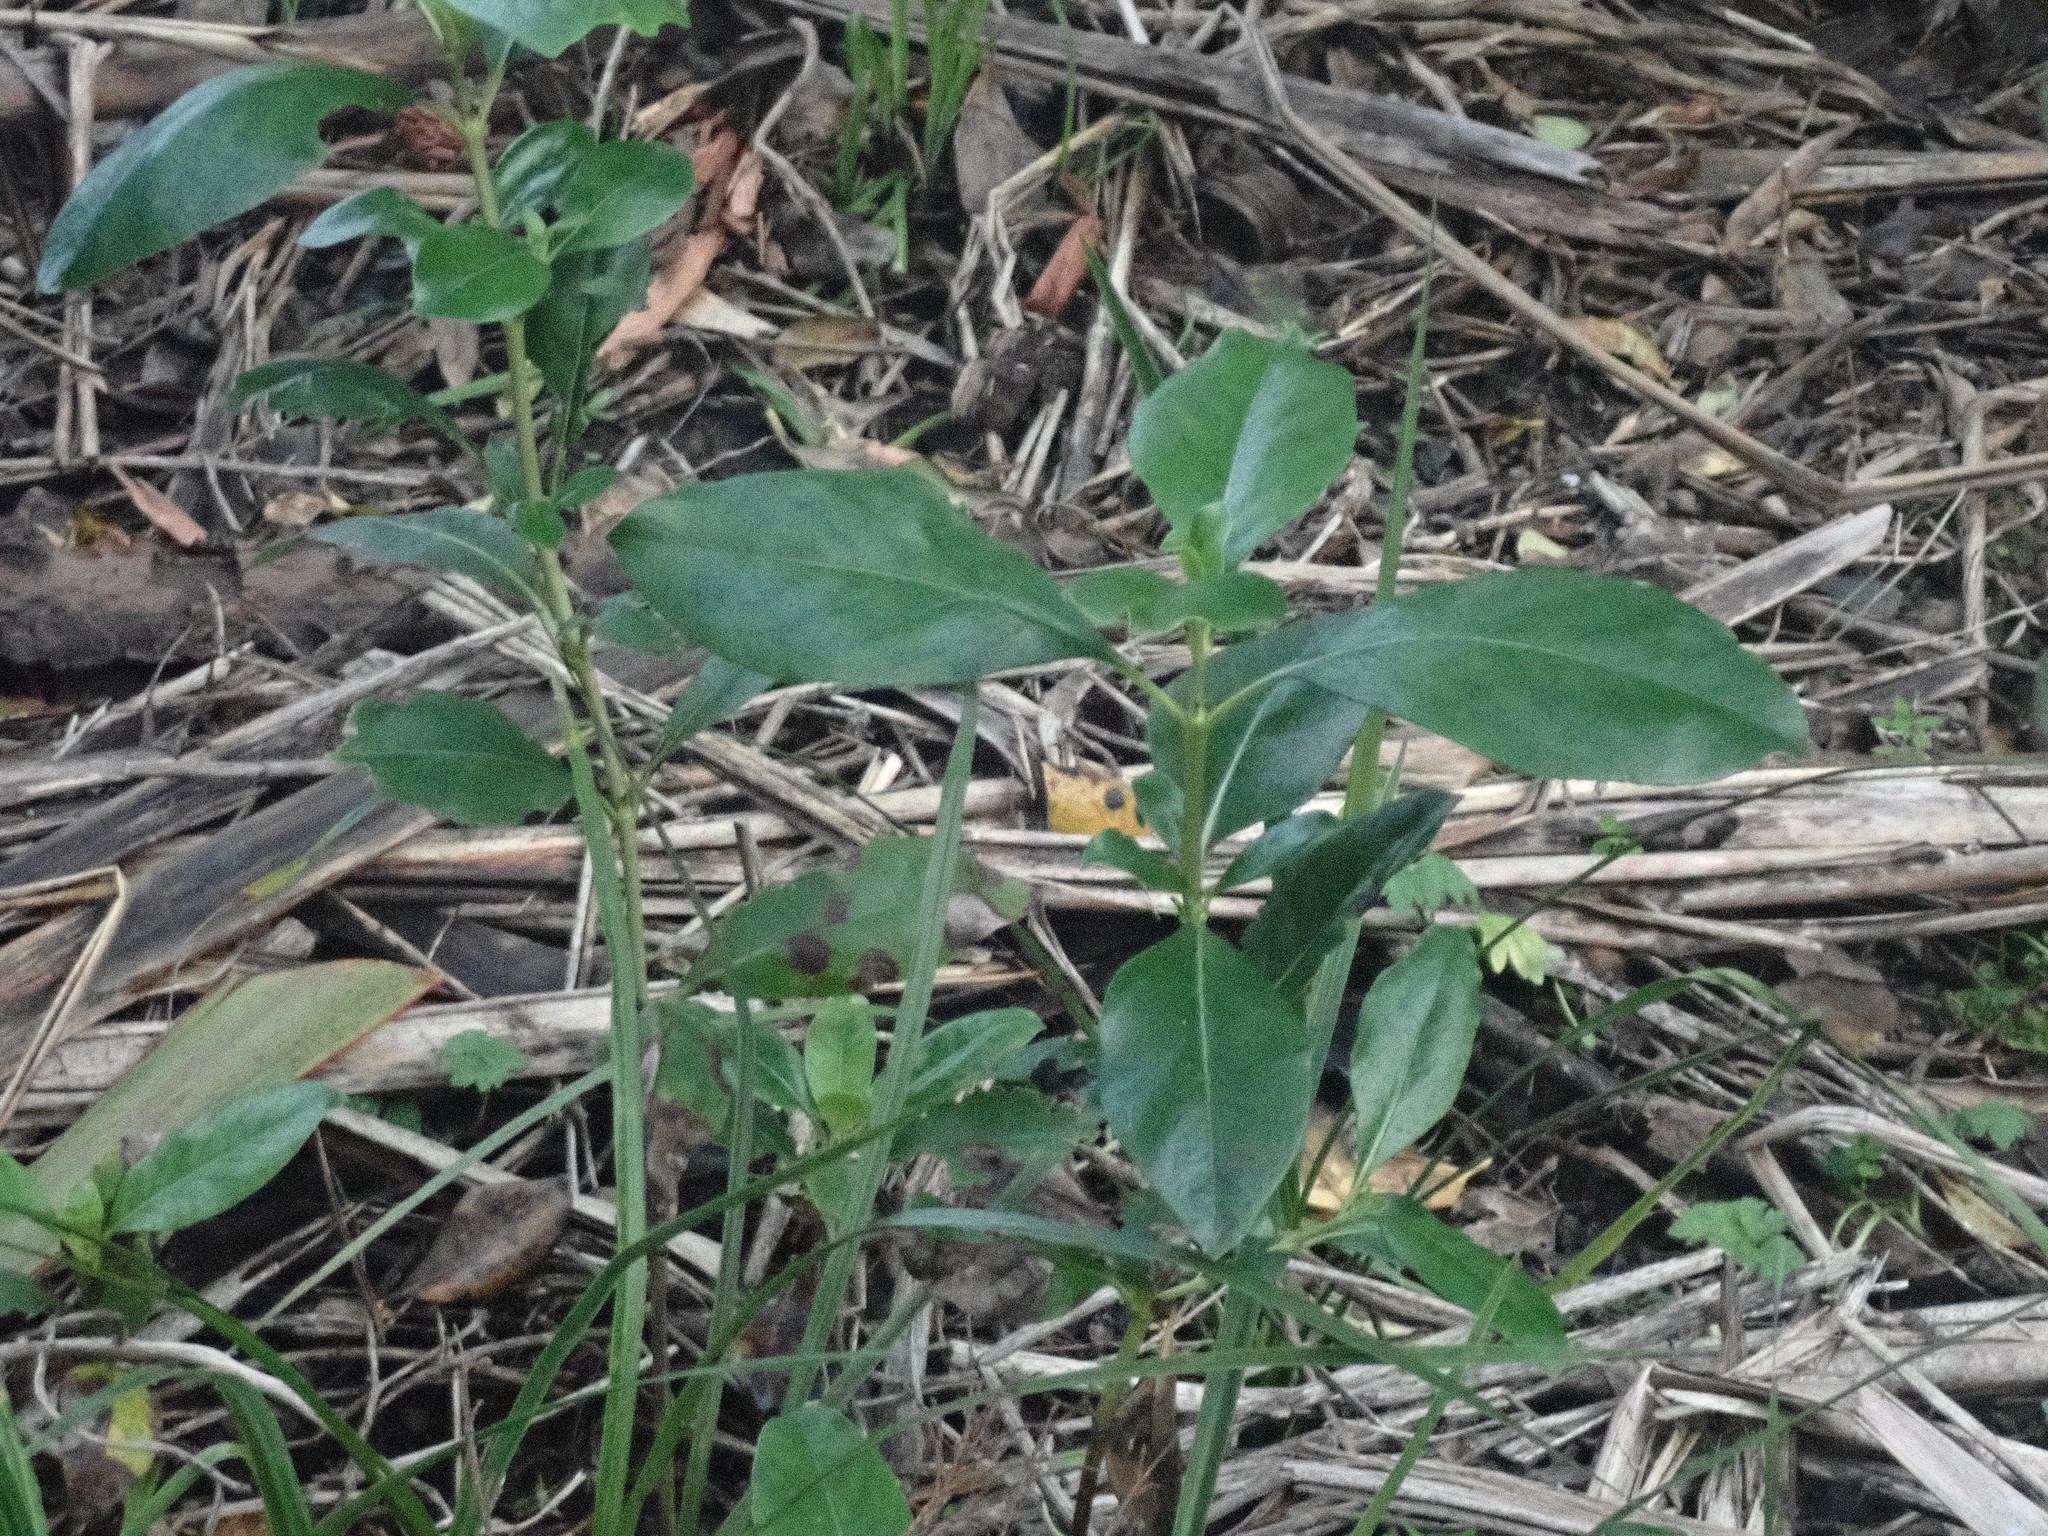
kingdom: Plantae
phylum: Tracheophyta
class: Magnoliopsida
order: Gentianales
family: Rubiaceae
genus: Coprosma
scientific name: Coprosma robusta
